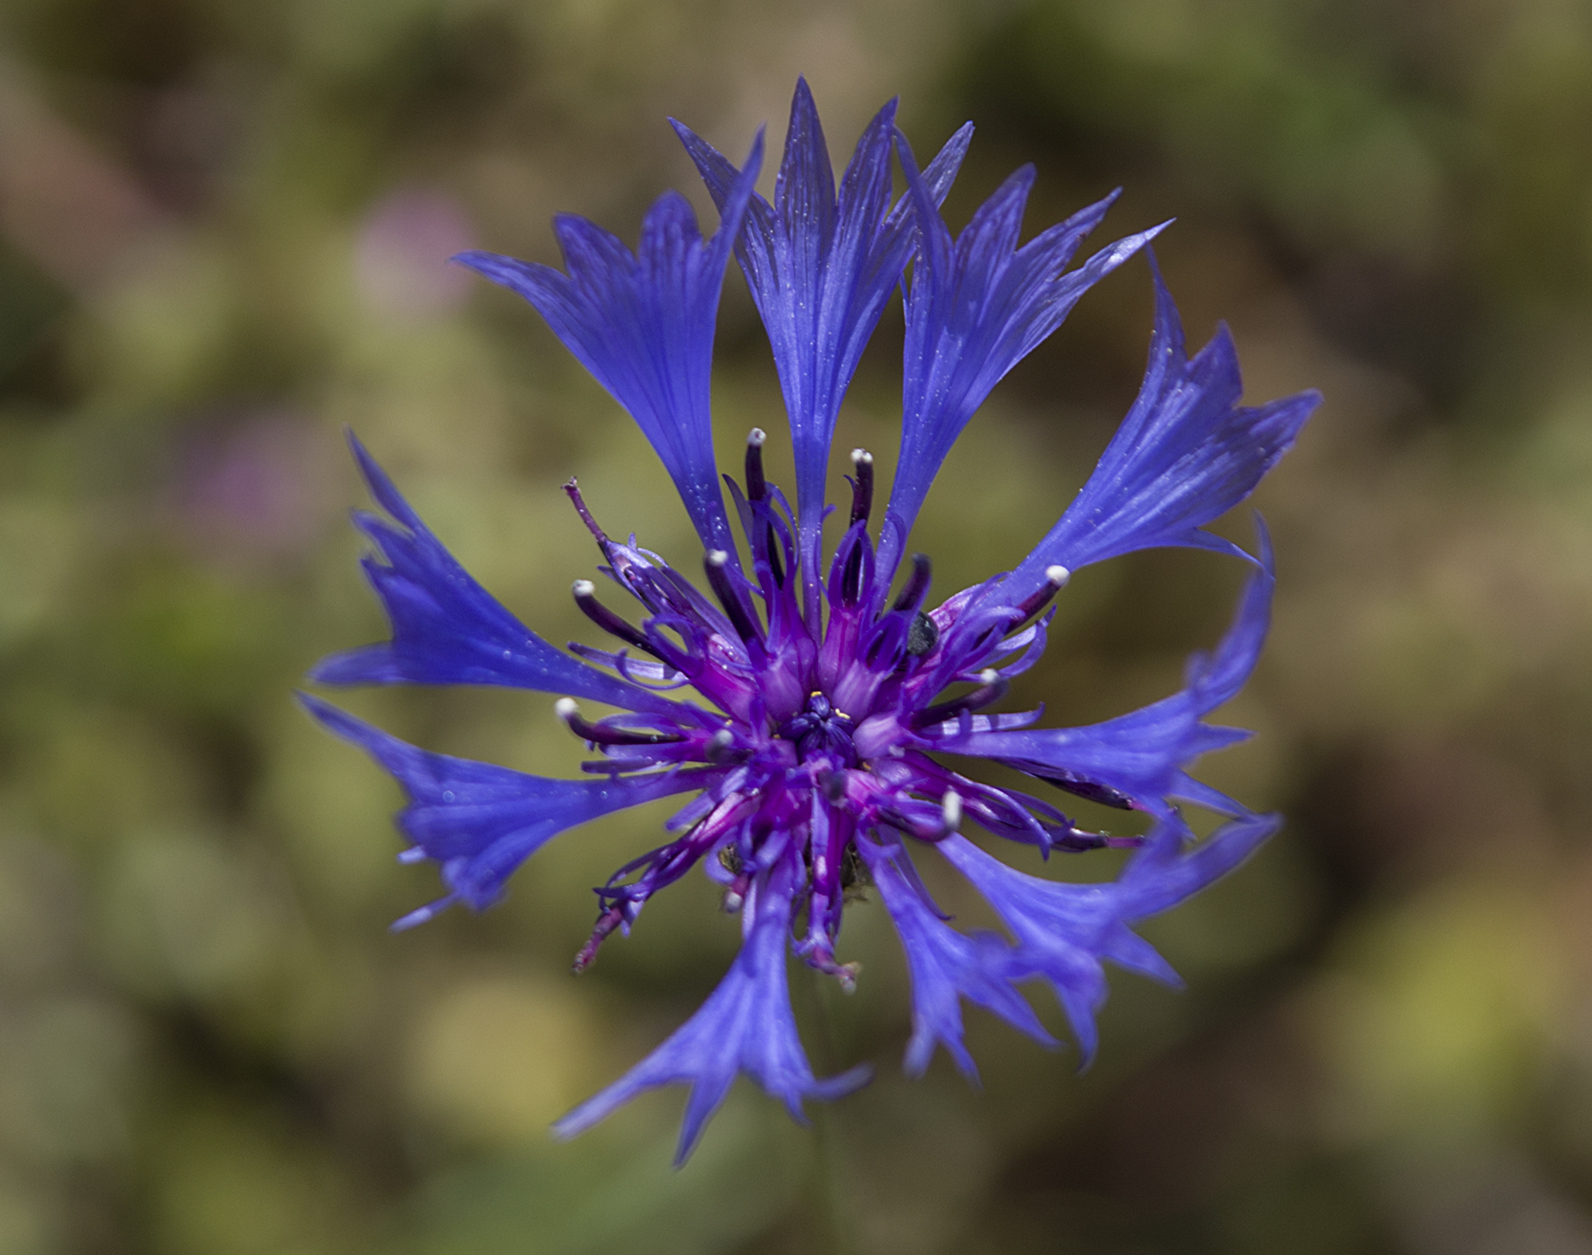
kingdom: Plantae
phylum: Tracheophyta
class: Magnoliopsida
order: Asterales
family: Asteraceae
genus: Centaurea
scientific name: Centaurea cyanus
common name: Cornflower
